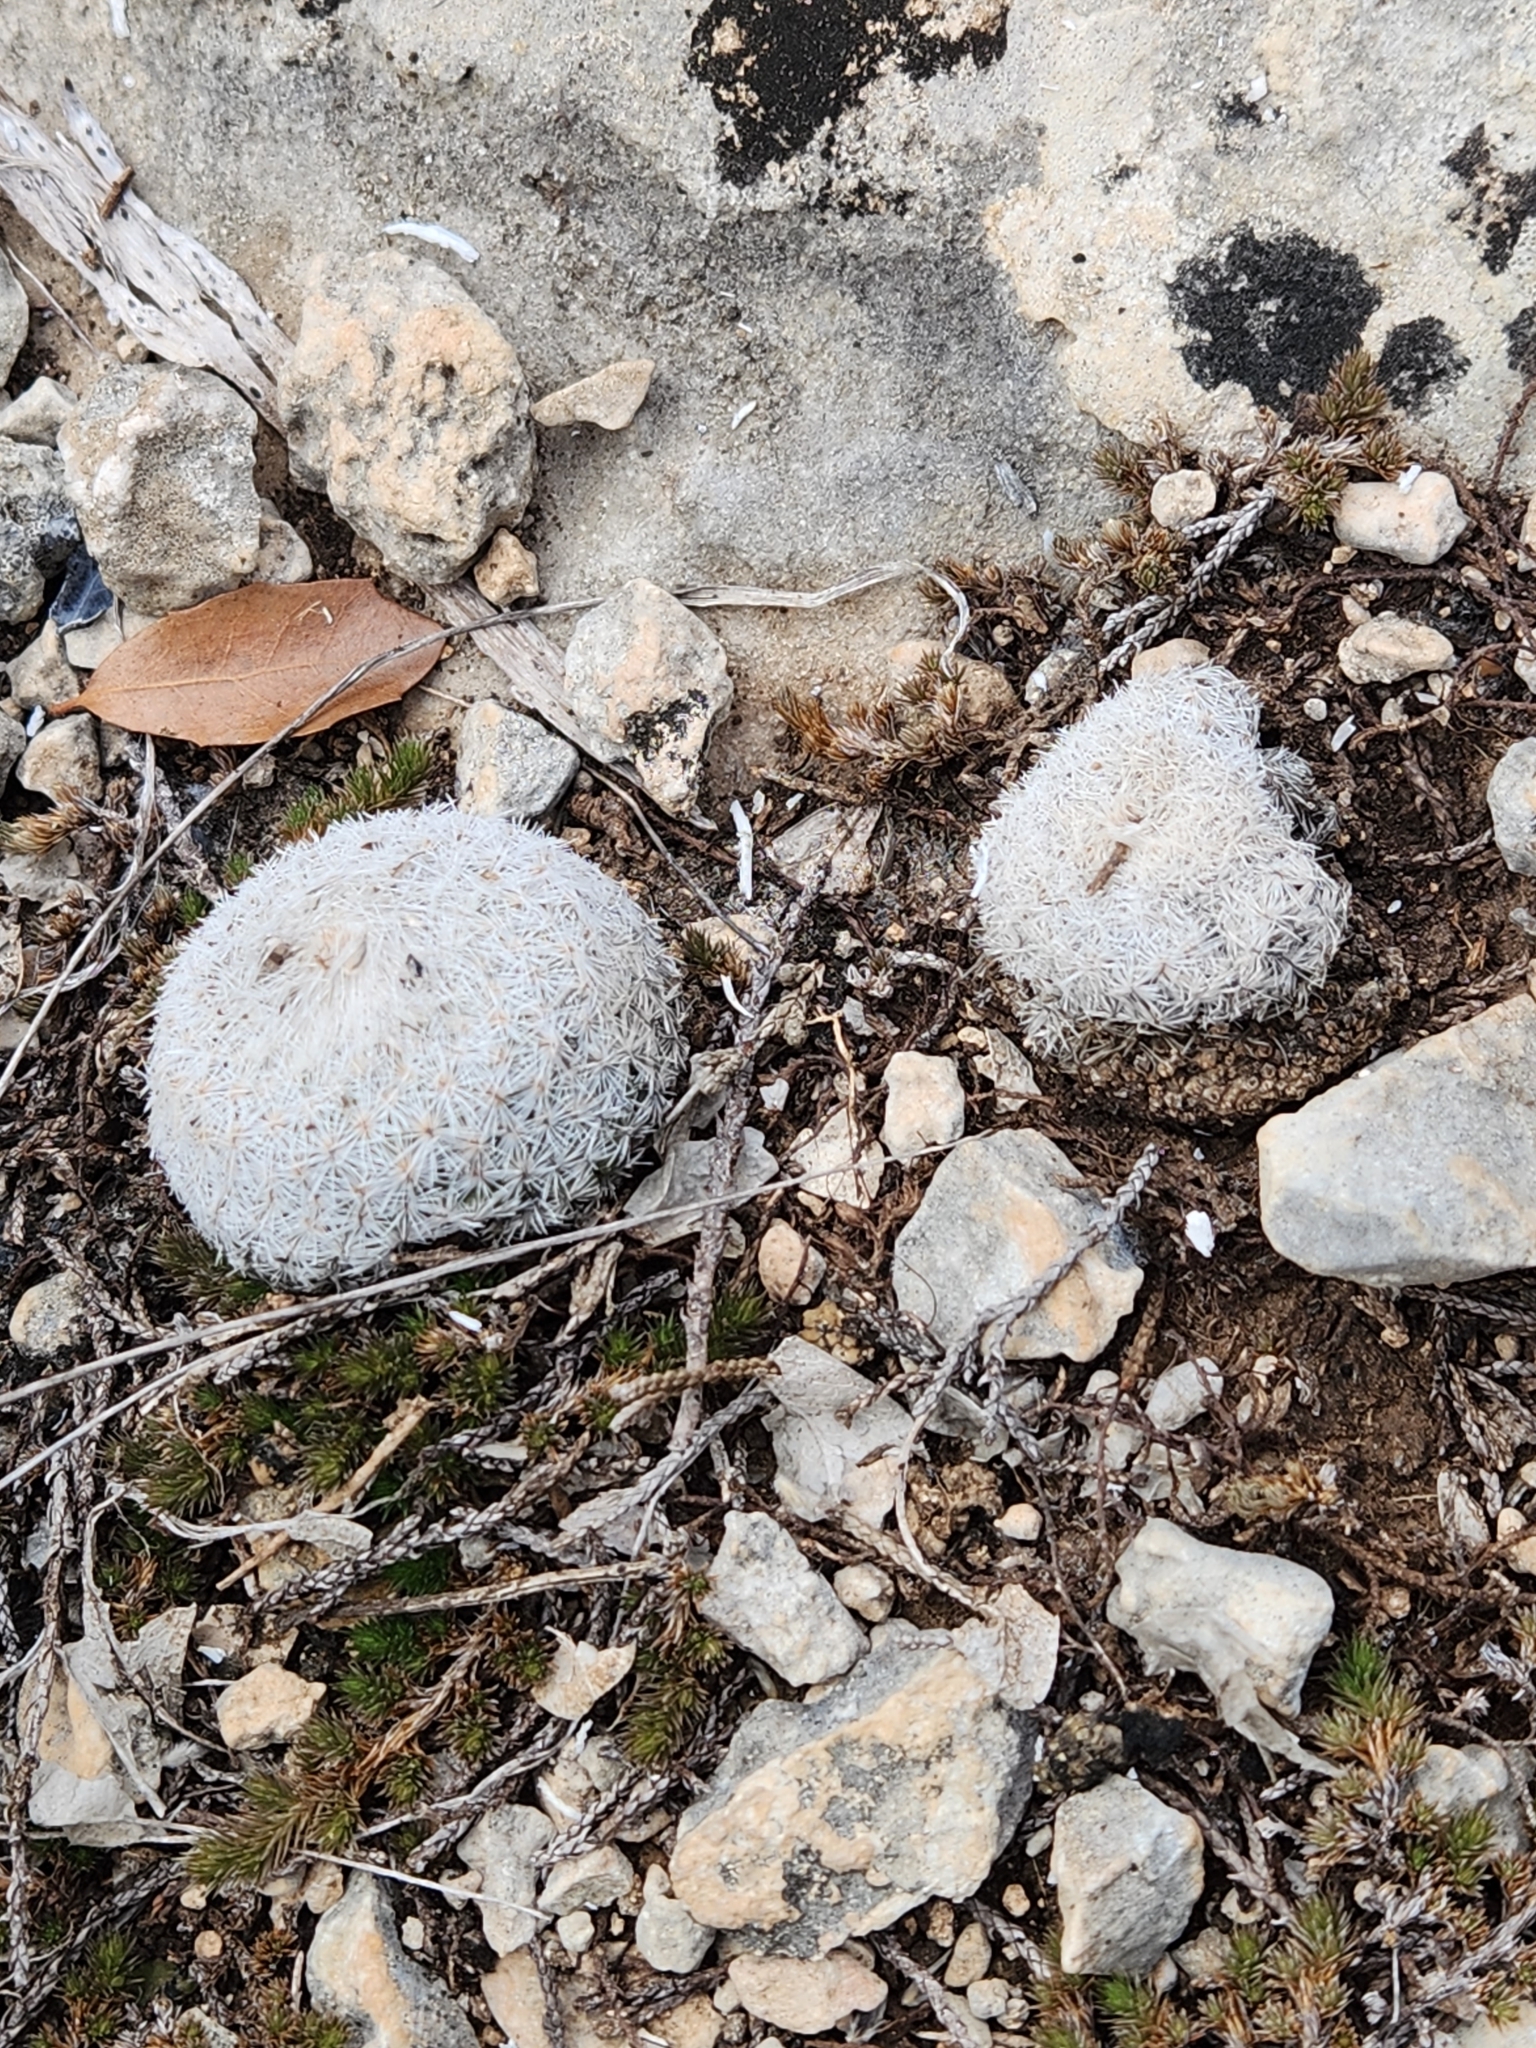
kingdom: Plantae
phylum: Tracheophyta
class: Magnoliopsida
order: Caryophyllales
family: Cactaceae
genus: Epithelantha
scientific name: Epithelantha micromeris
